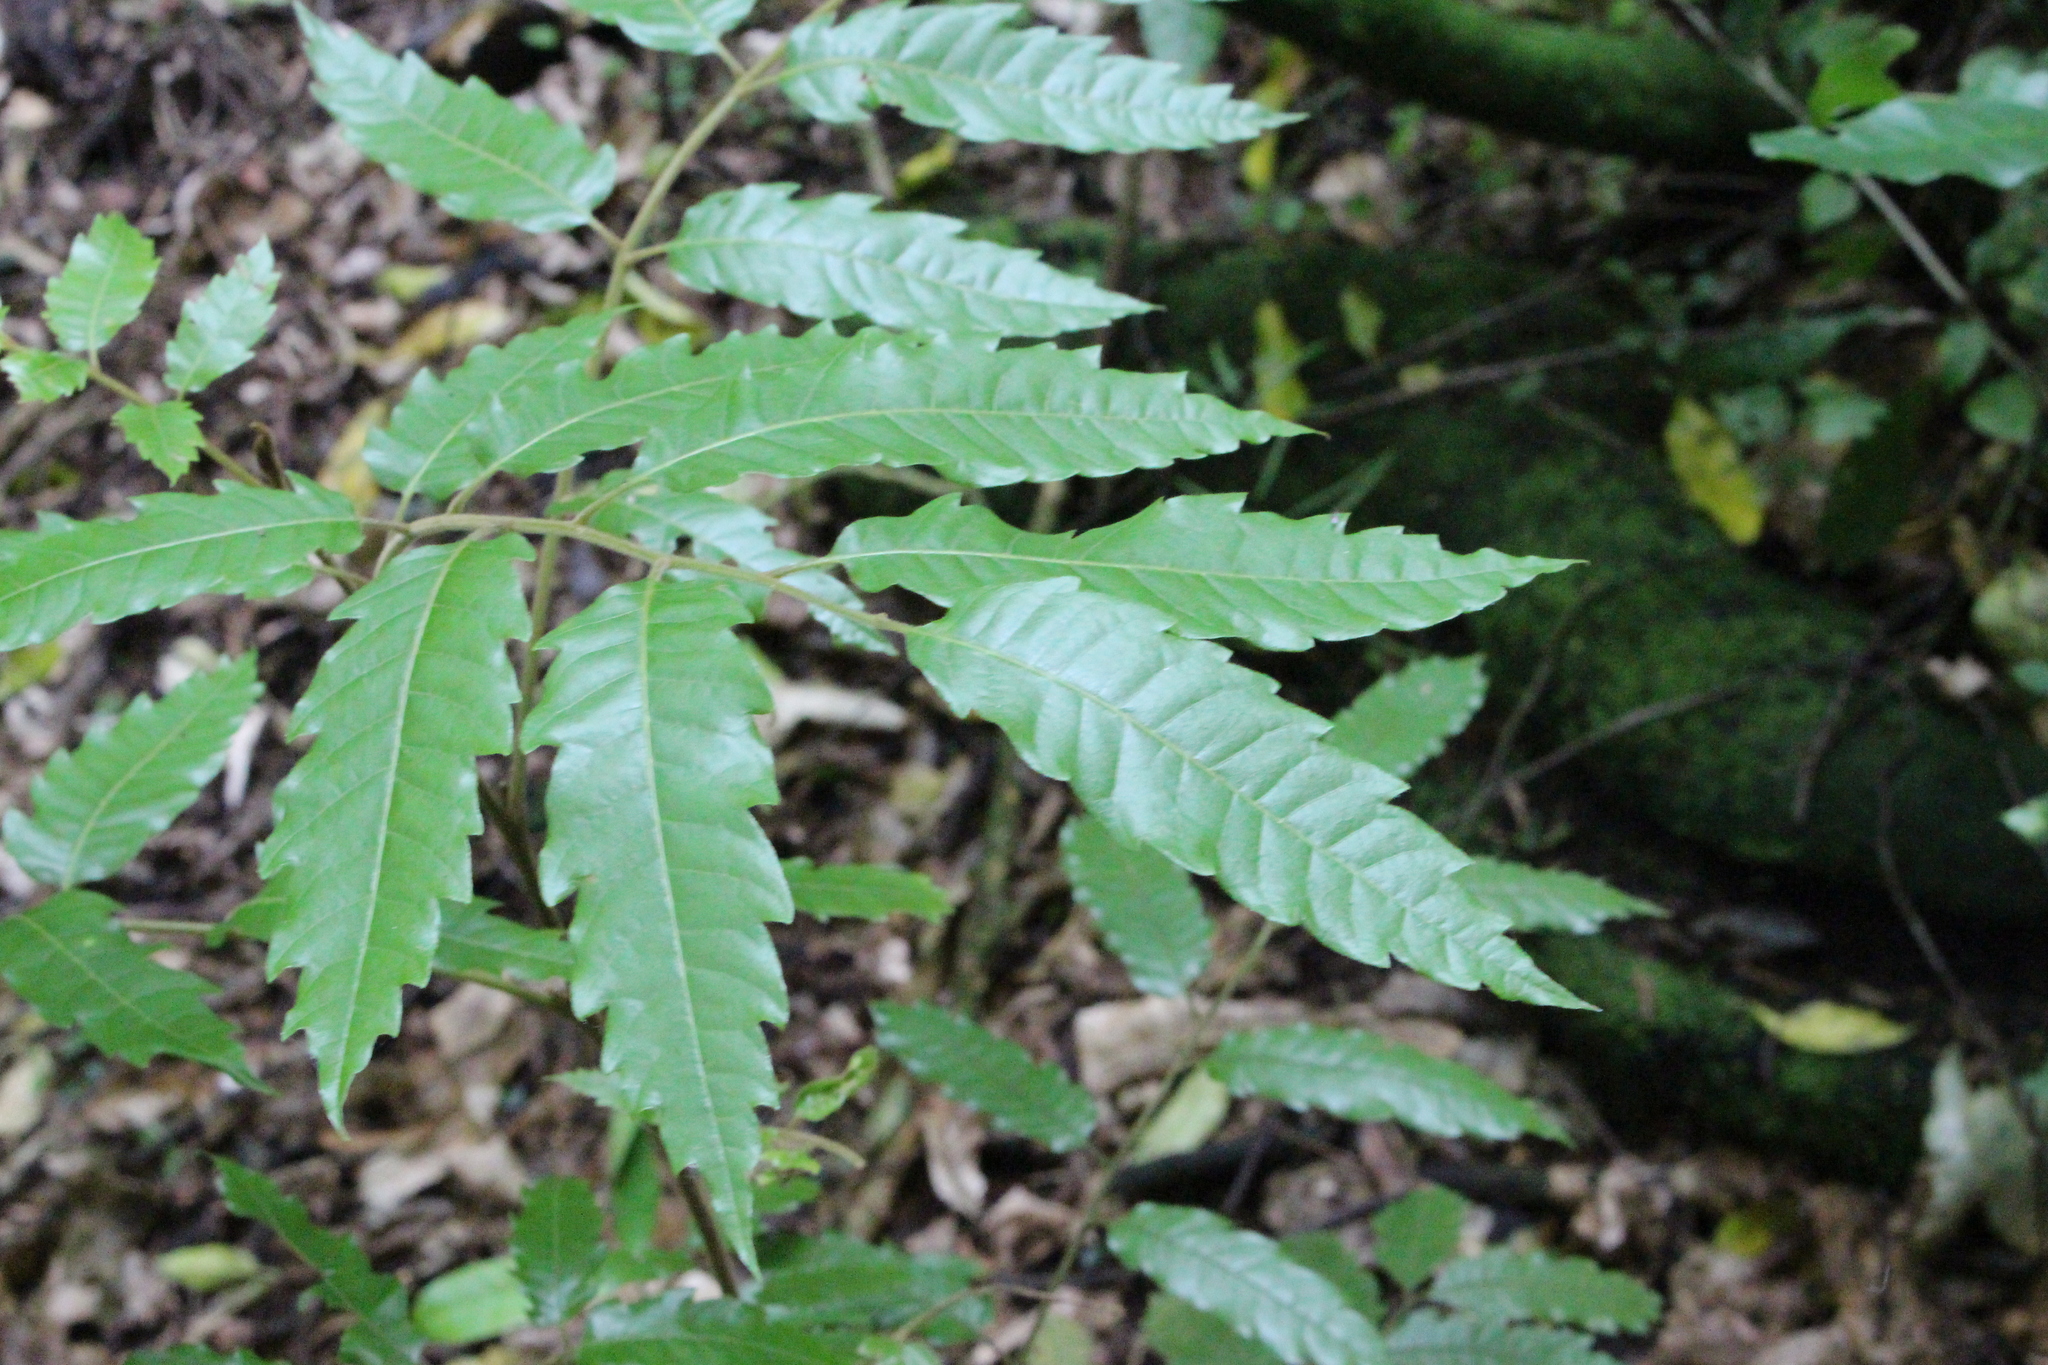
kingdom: Plantae
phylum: Tracheophyta
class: Magnoliopsida
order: Sapindales
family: Sapindaceae
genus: Alectryon
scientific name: Alectryon excelsus
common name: Three kings titoki
